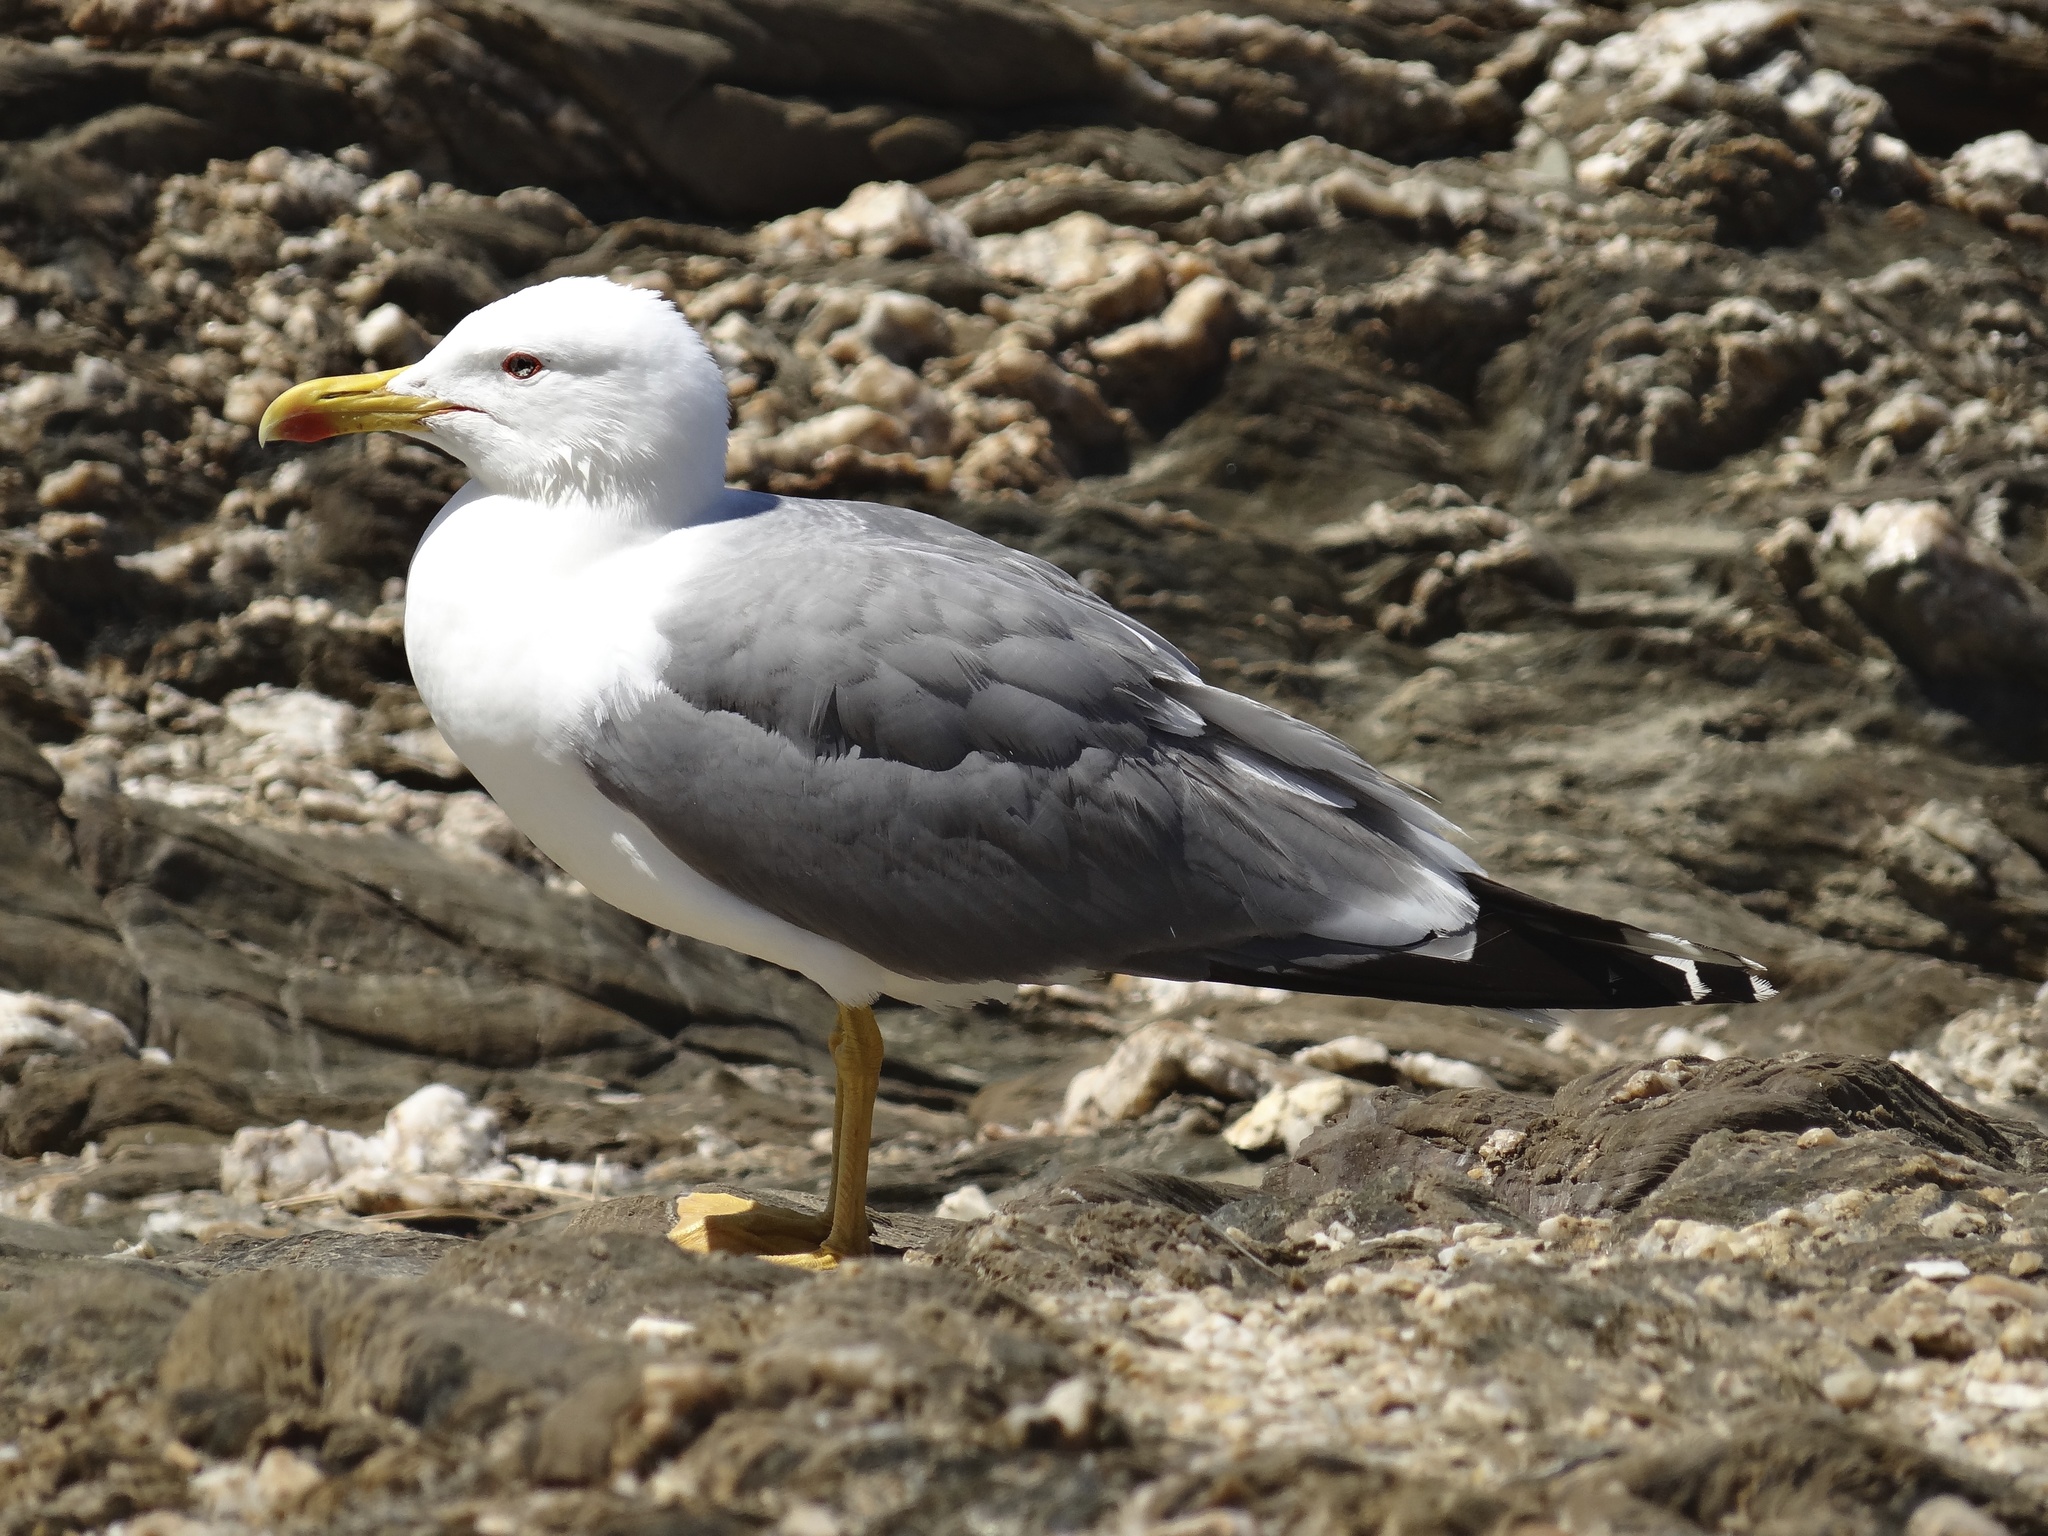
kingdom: Animalia
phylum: Chordata
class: Aves
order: Charadriiformes
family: Laridae
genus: Larus
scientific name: Larus michahellis
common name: Yellow-legged gull
